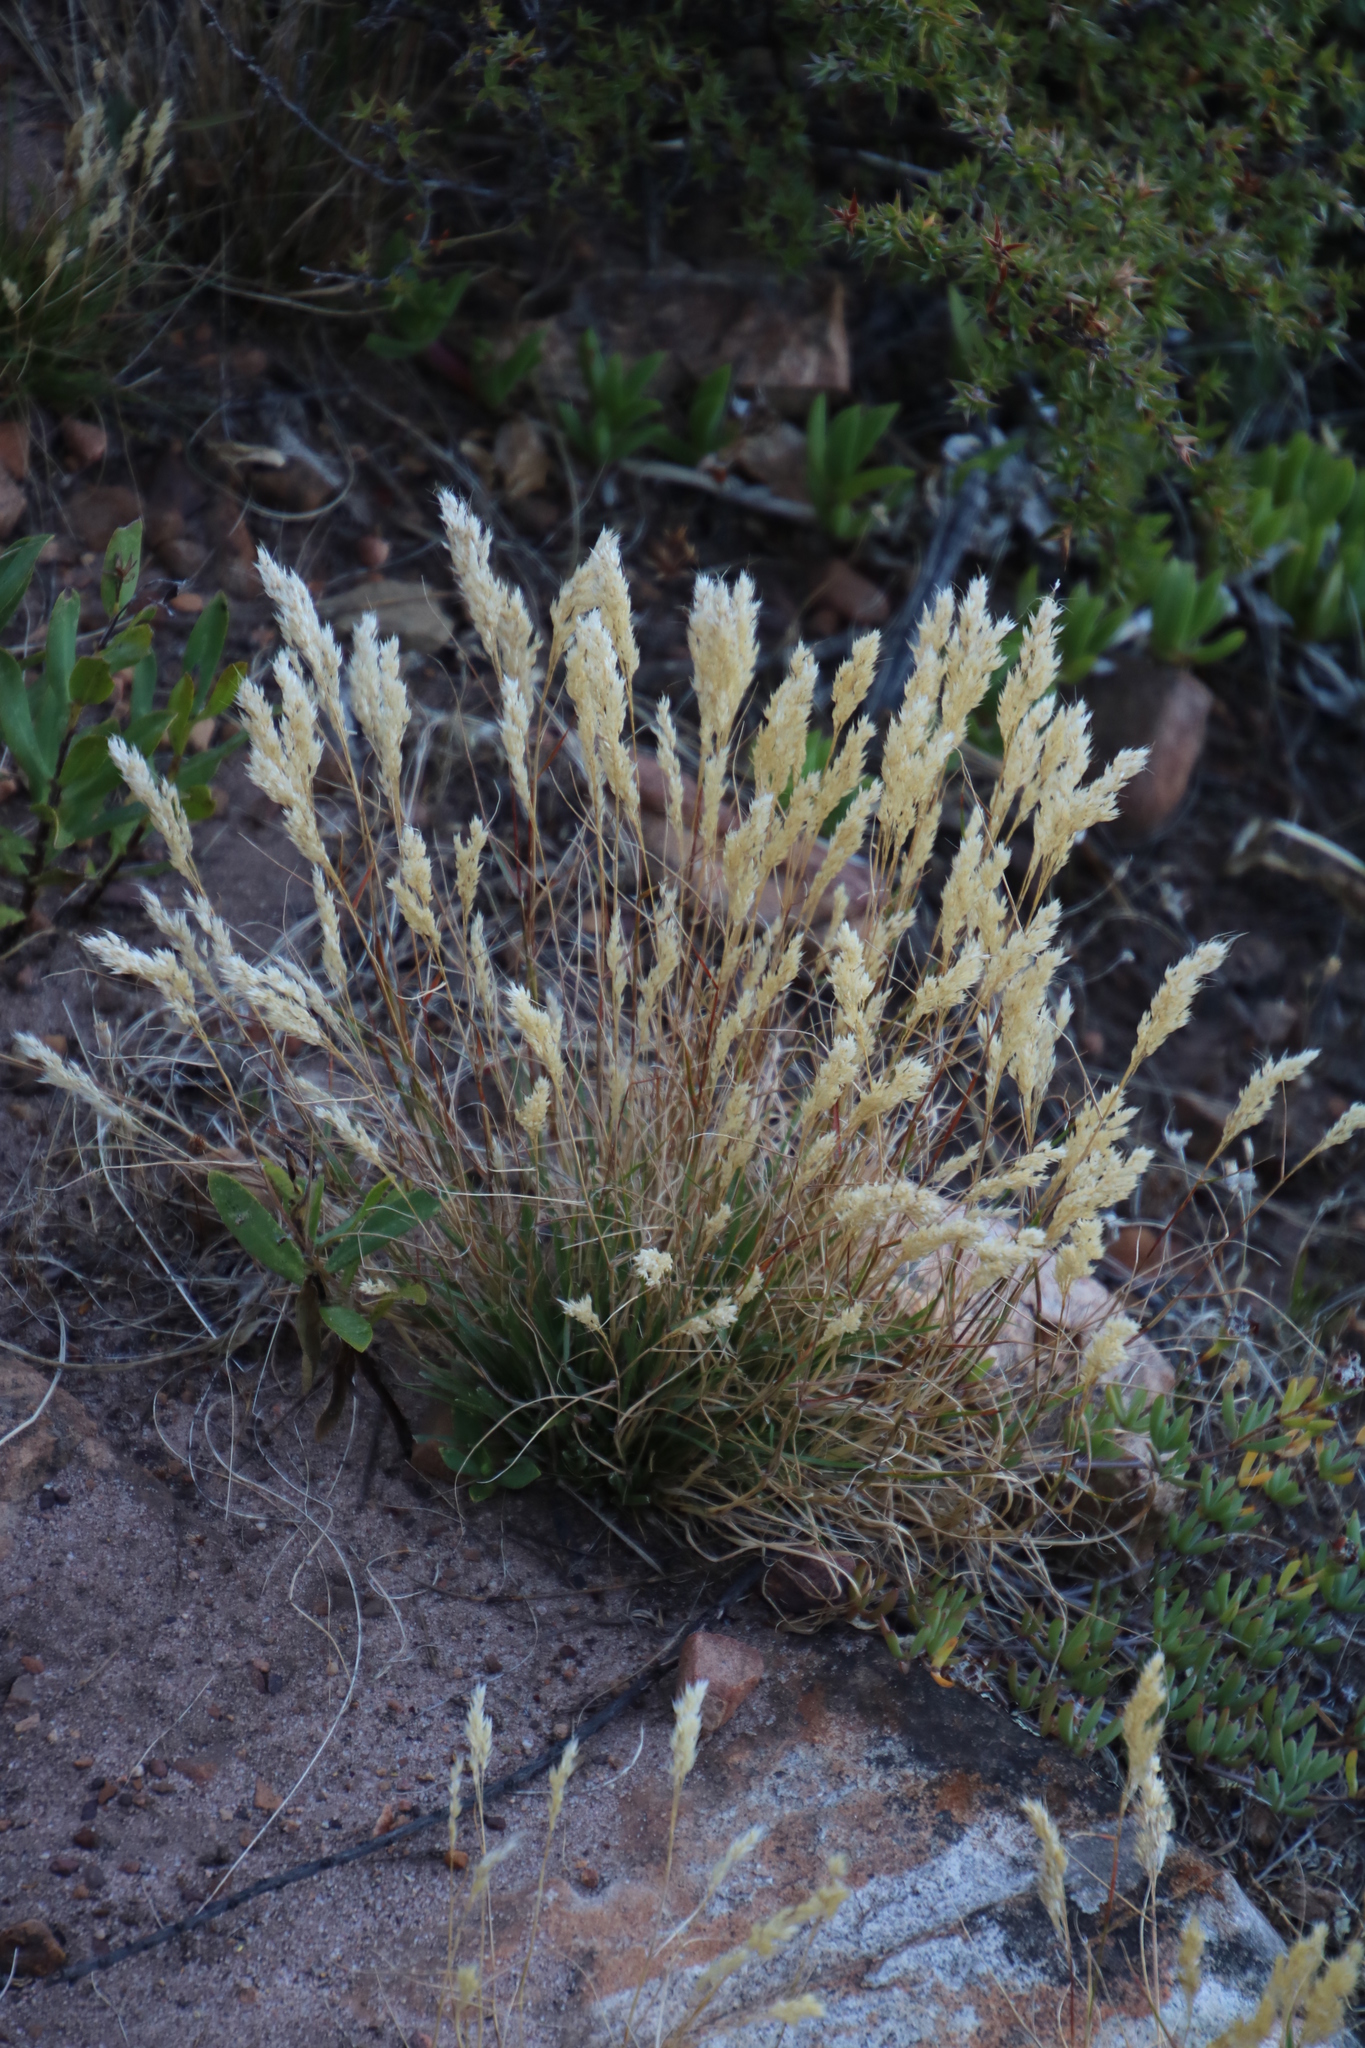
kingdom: Plantae
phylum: Tracheophyta
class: Liliopsida
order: Poales
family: Poaceae
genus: Pentameris
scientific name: Pentameris curvifolia
